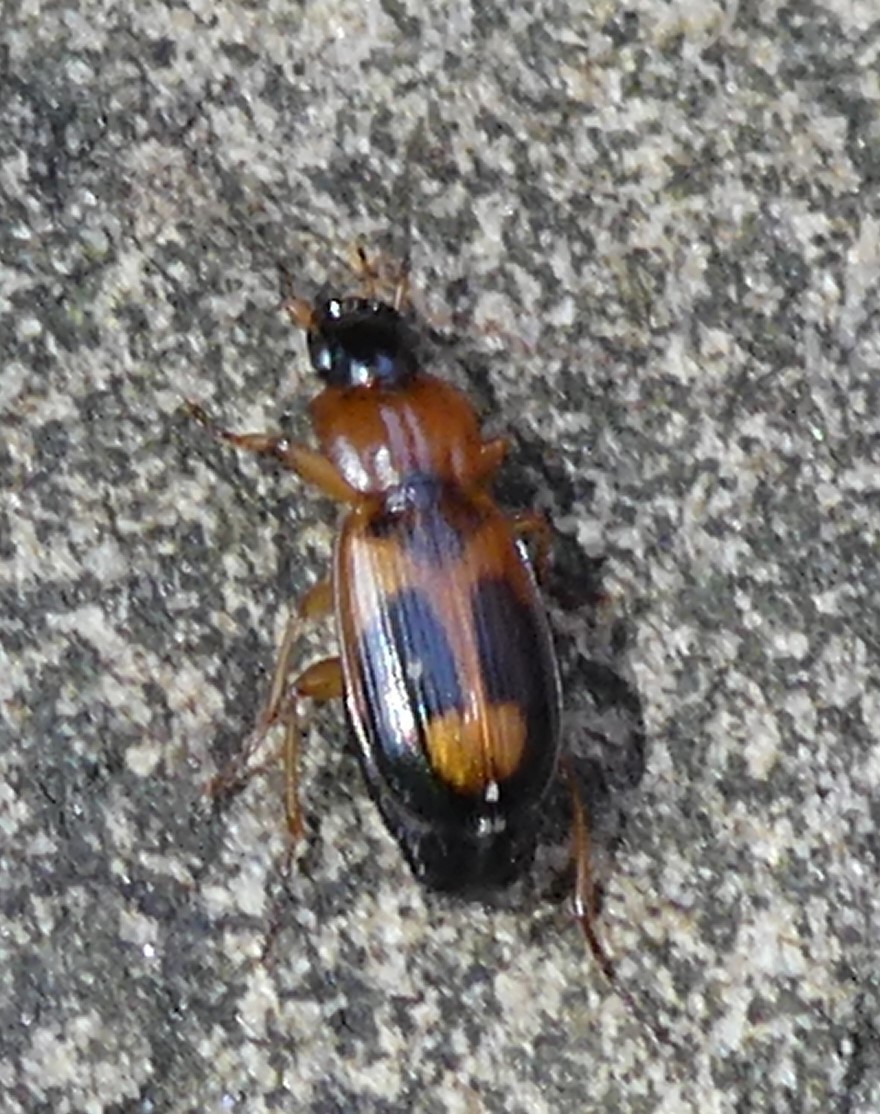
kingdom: Animalia
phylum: Arthropoda
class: Insecta
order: Coleoptera
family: Carabidae
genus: Badister
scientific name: Badister bullatus
